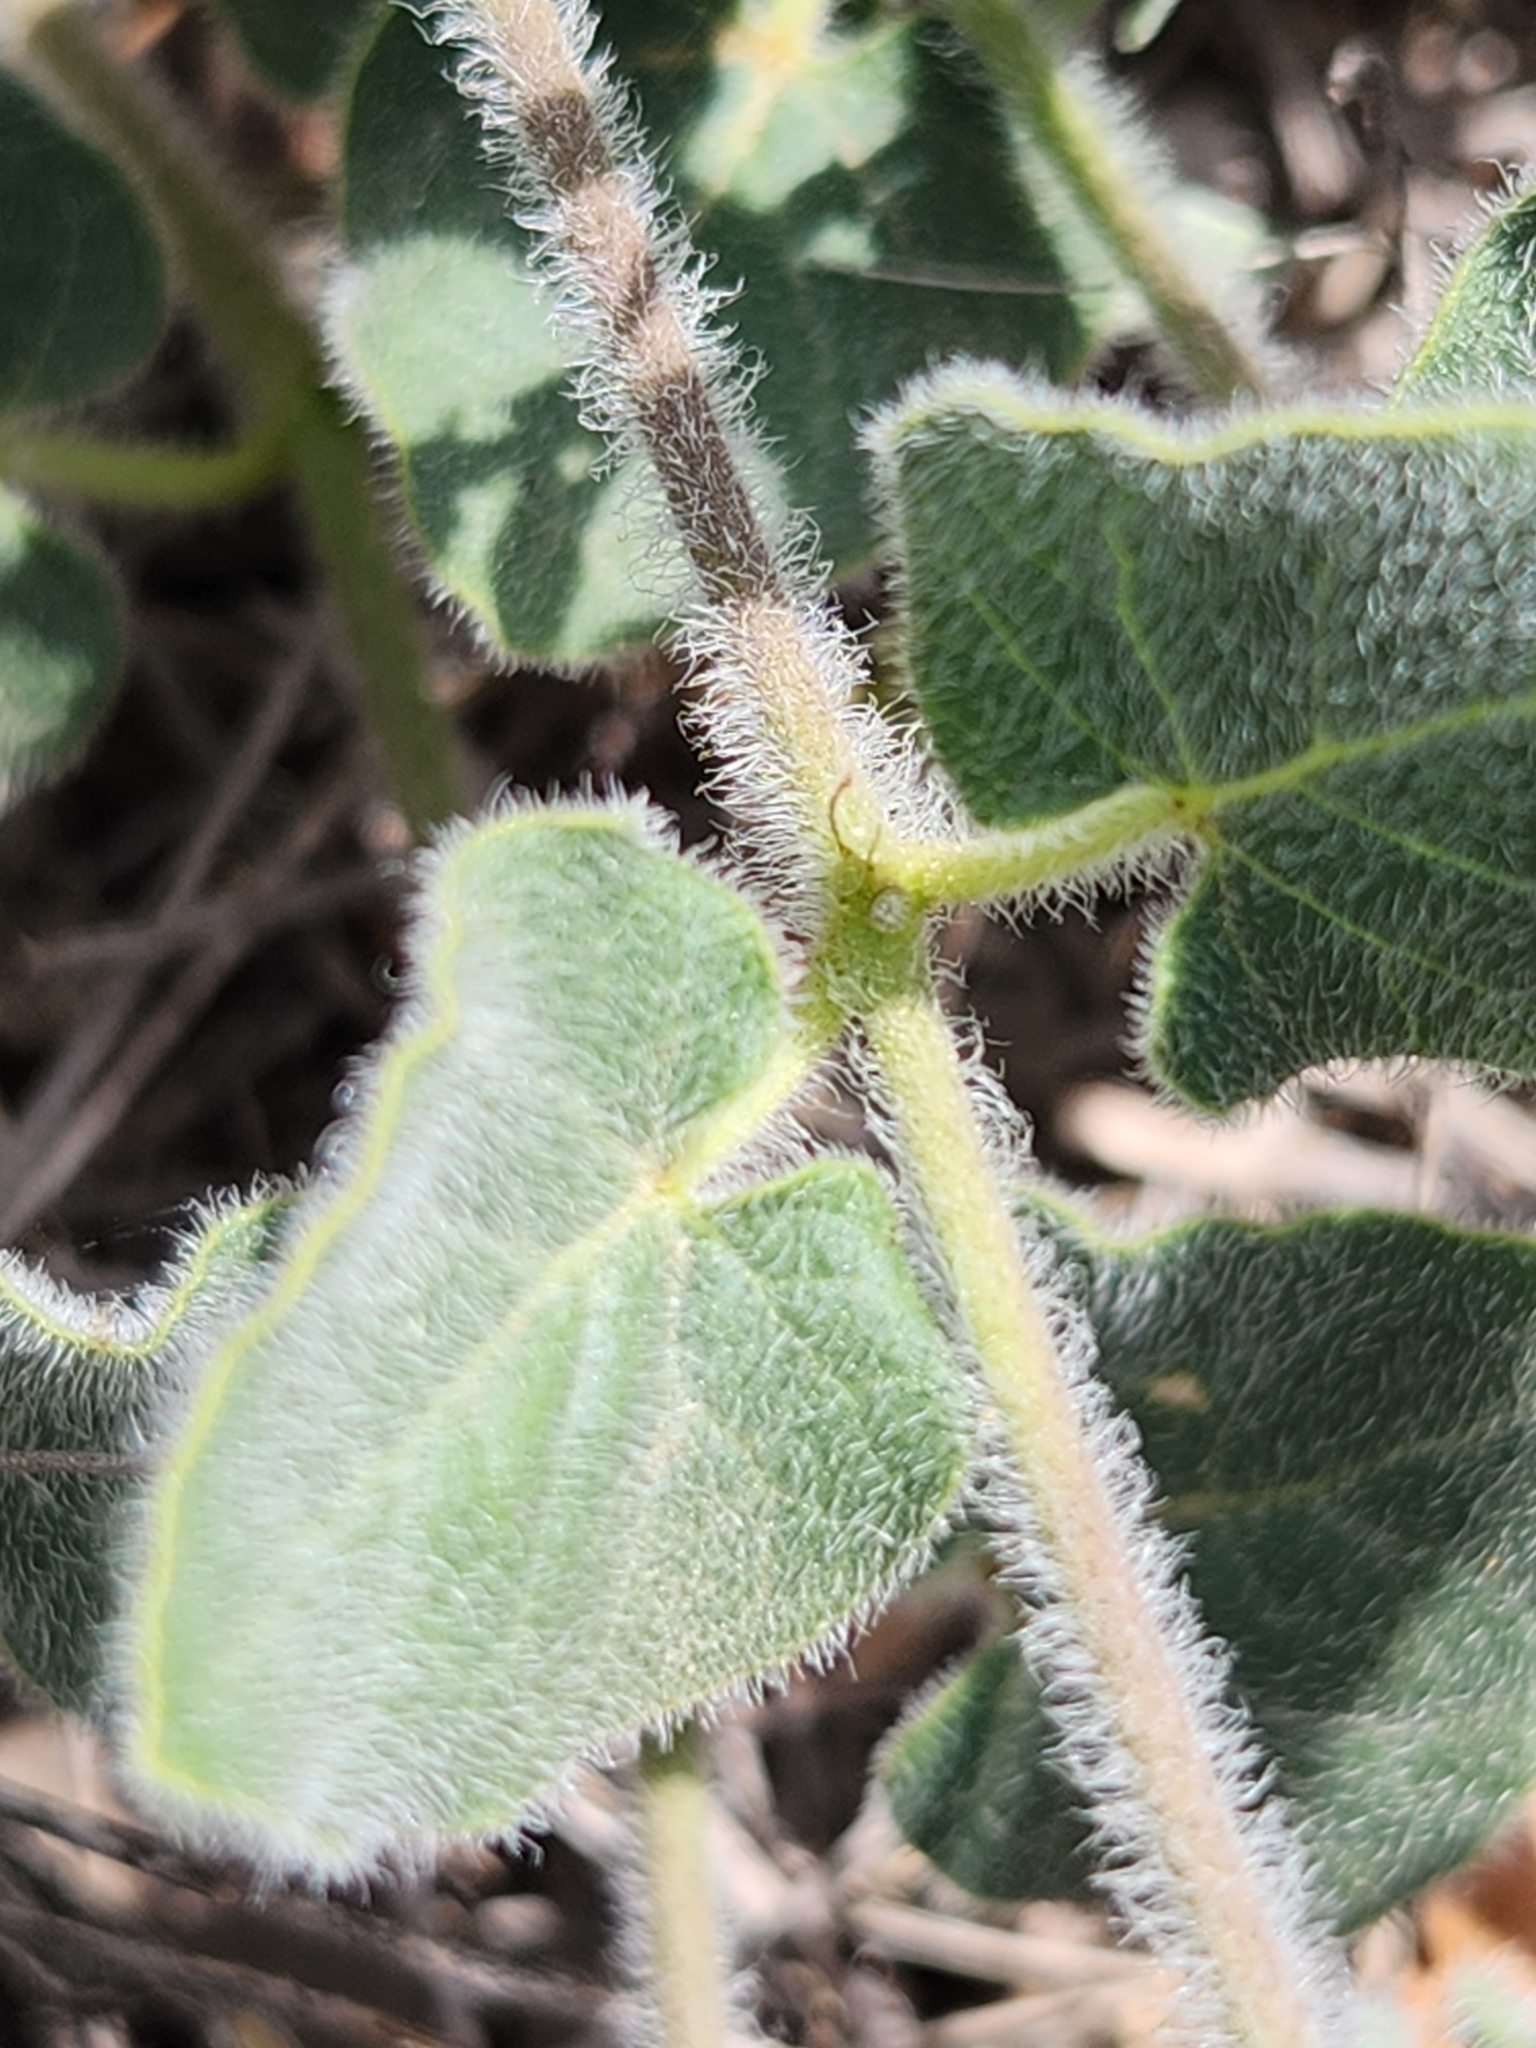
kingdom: Plantae
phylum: Tracheophyta
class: Magnoliopsida
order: Gentianales
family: Apocynaceae
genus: Chthamalia
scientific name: Chthamalia biflora
